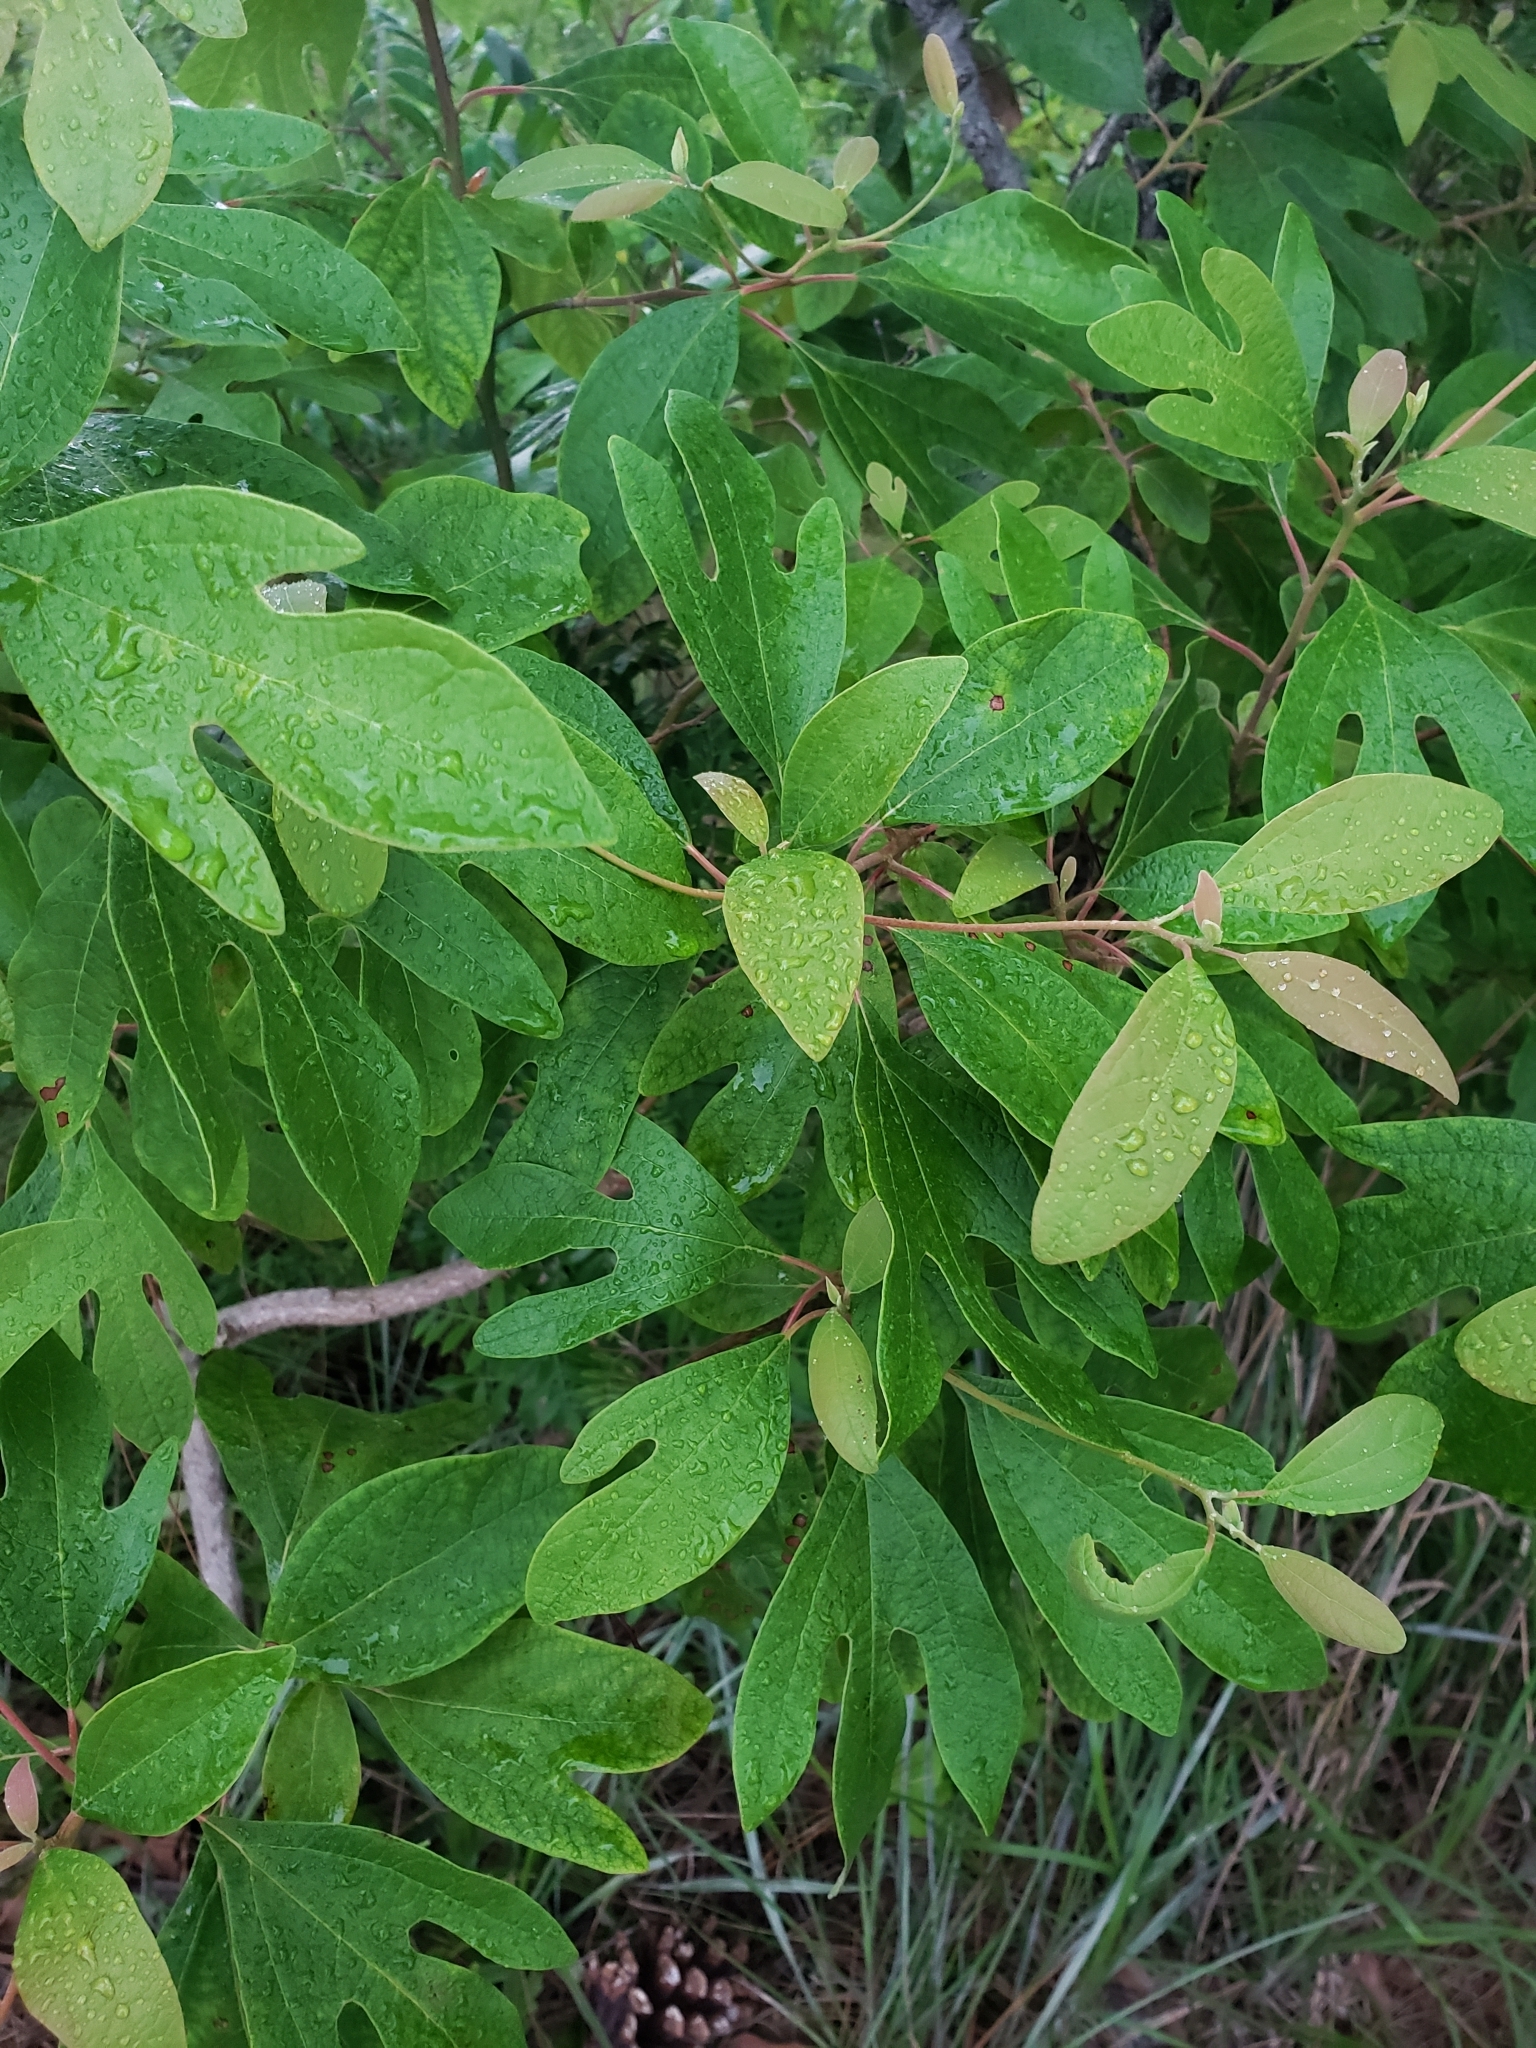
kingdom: Plantae
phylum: Tracheophyta
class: Magnoliopsida
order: Laurales
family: Lauraceae
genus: Sassafras
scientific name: Sassafras albidum
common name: Sassafras
